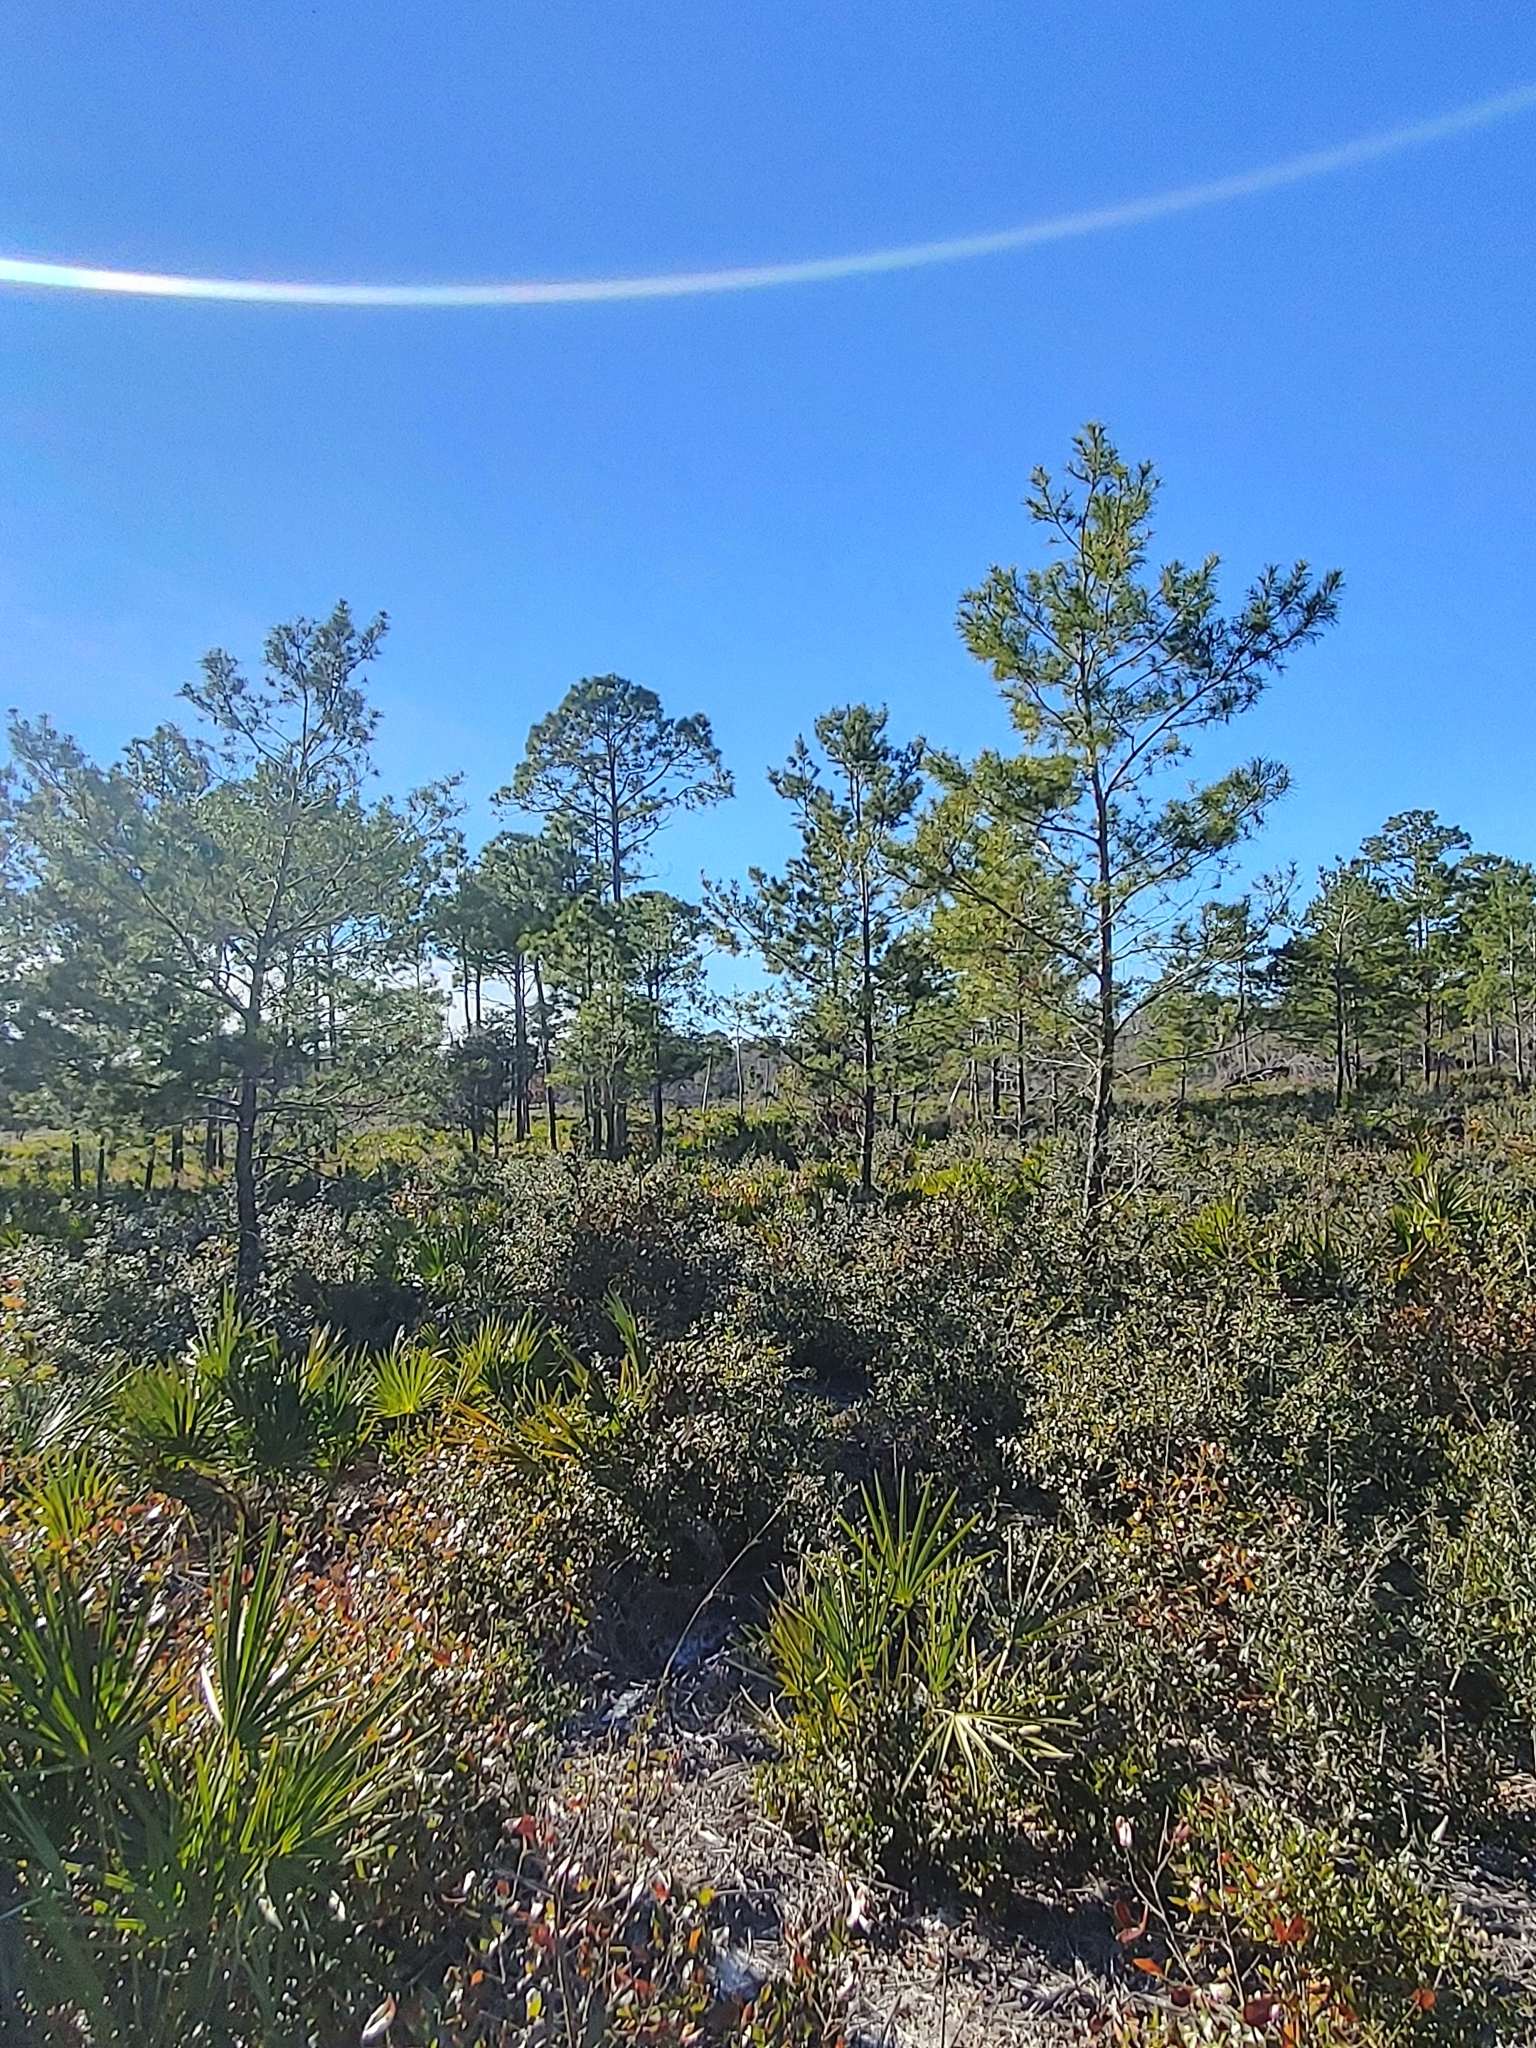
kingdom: Plantae
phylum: Tracheophyta
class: Pinopsida
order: Pinales
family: Pinaceae
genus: Pinus
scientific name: Pinus clausa
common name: Sand pine
